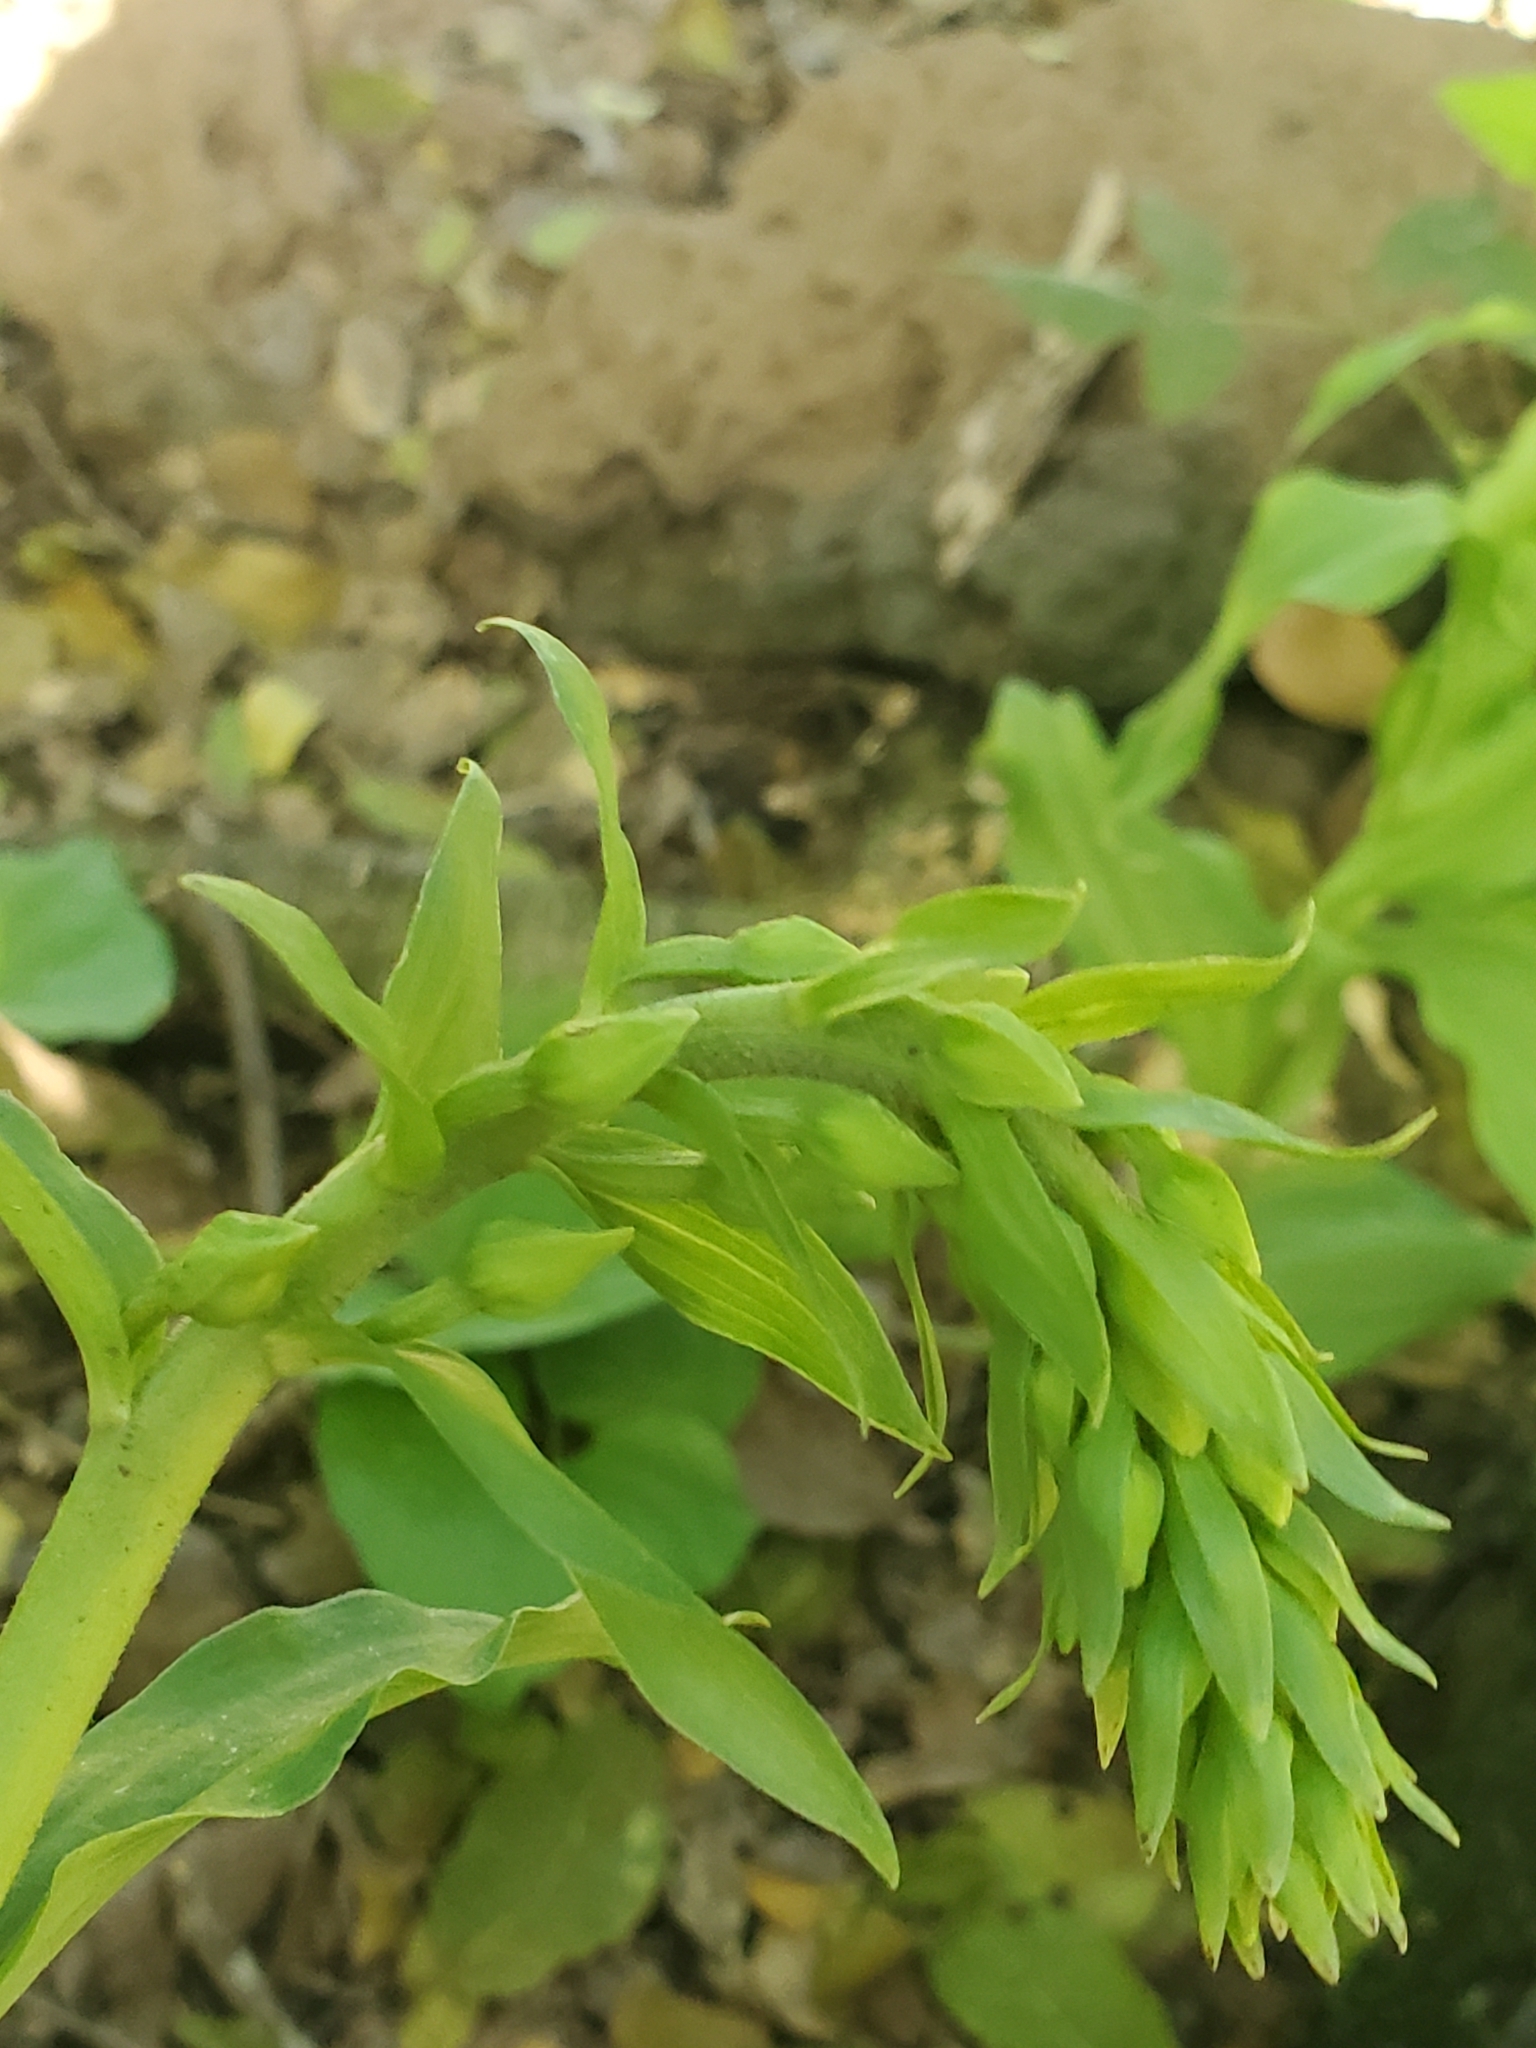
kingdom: Plantae
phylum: Tracheophyta
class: Liliopsida
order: Asparagales
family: Orchidaceae
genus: Epipactis
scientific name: Epipactis helleborine
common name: Broad-leaved helleborine
